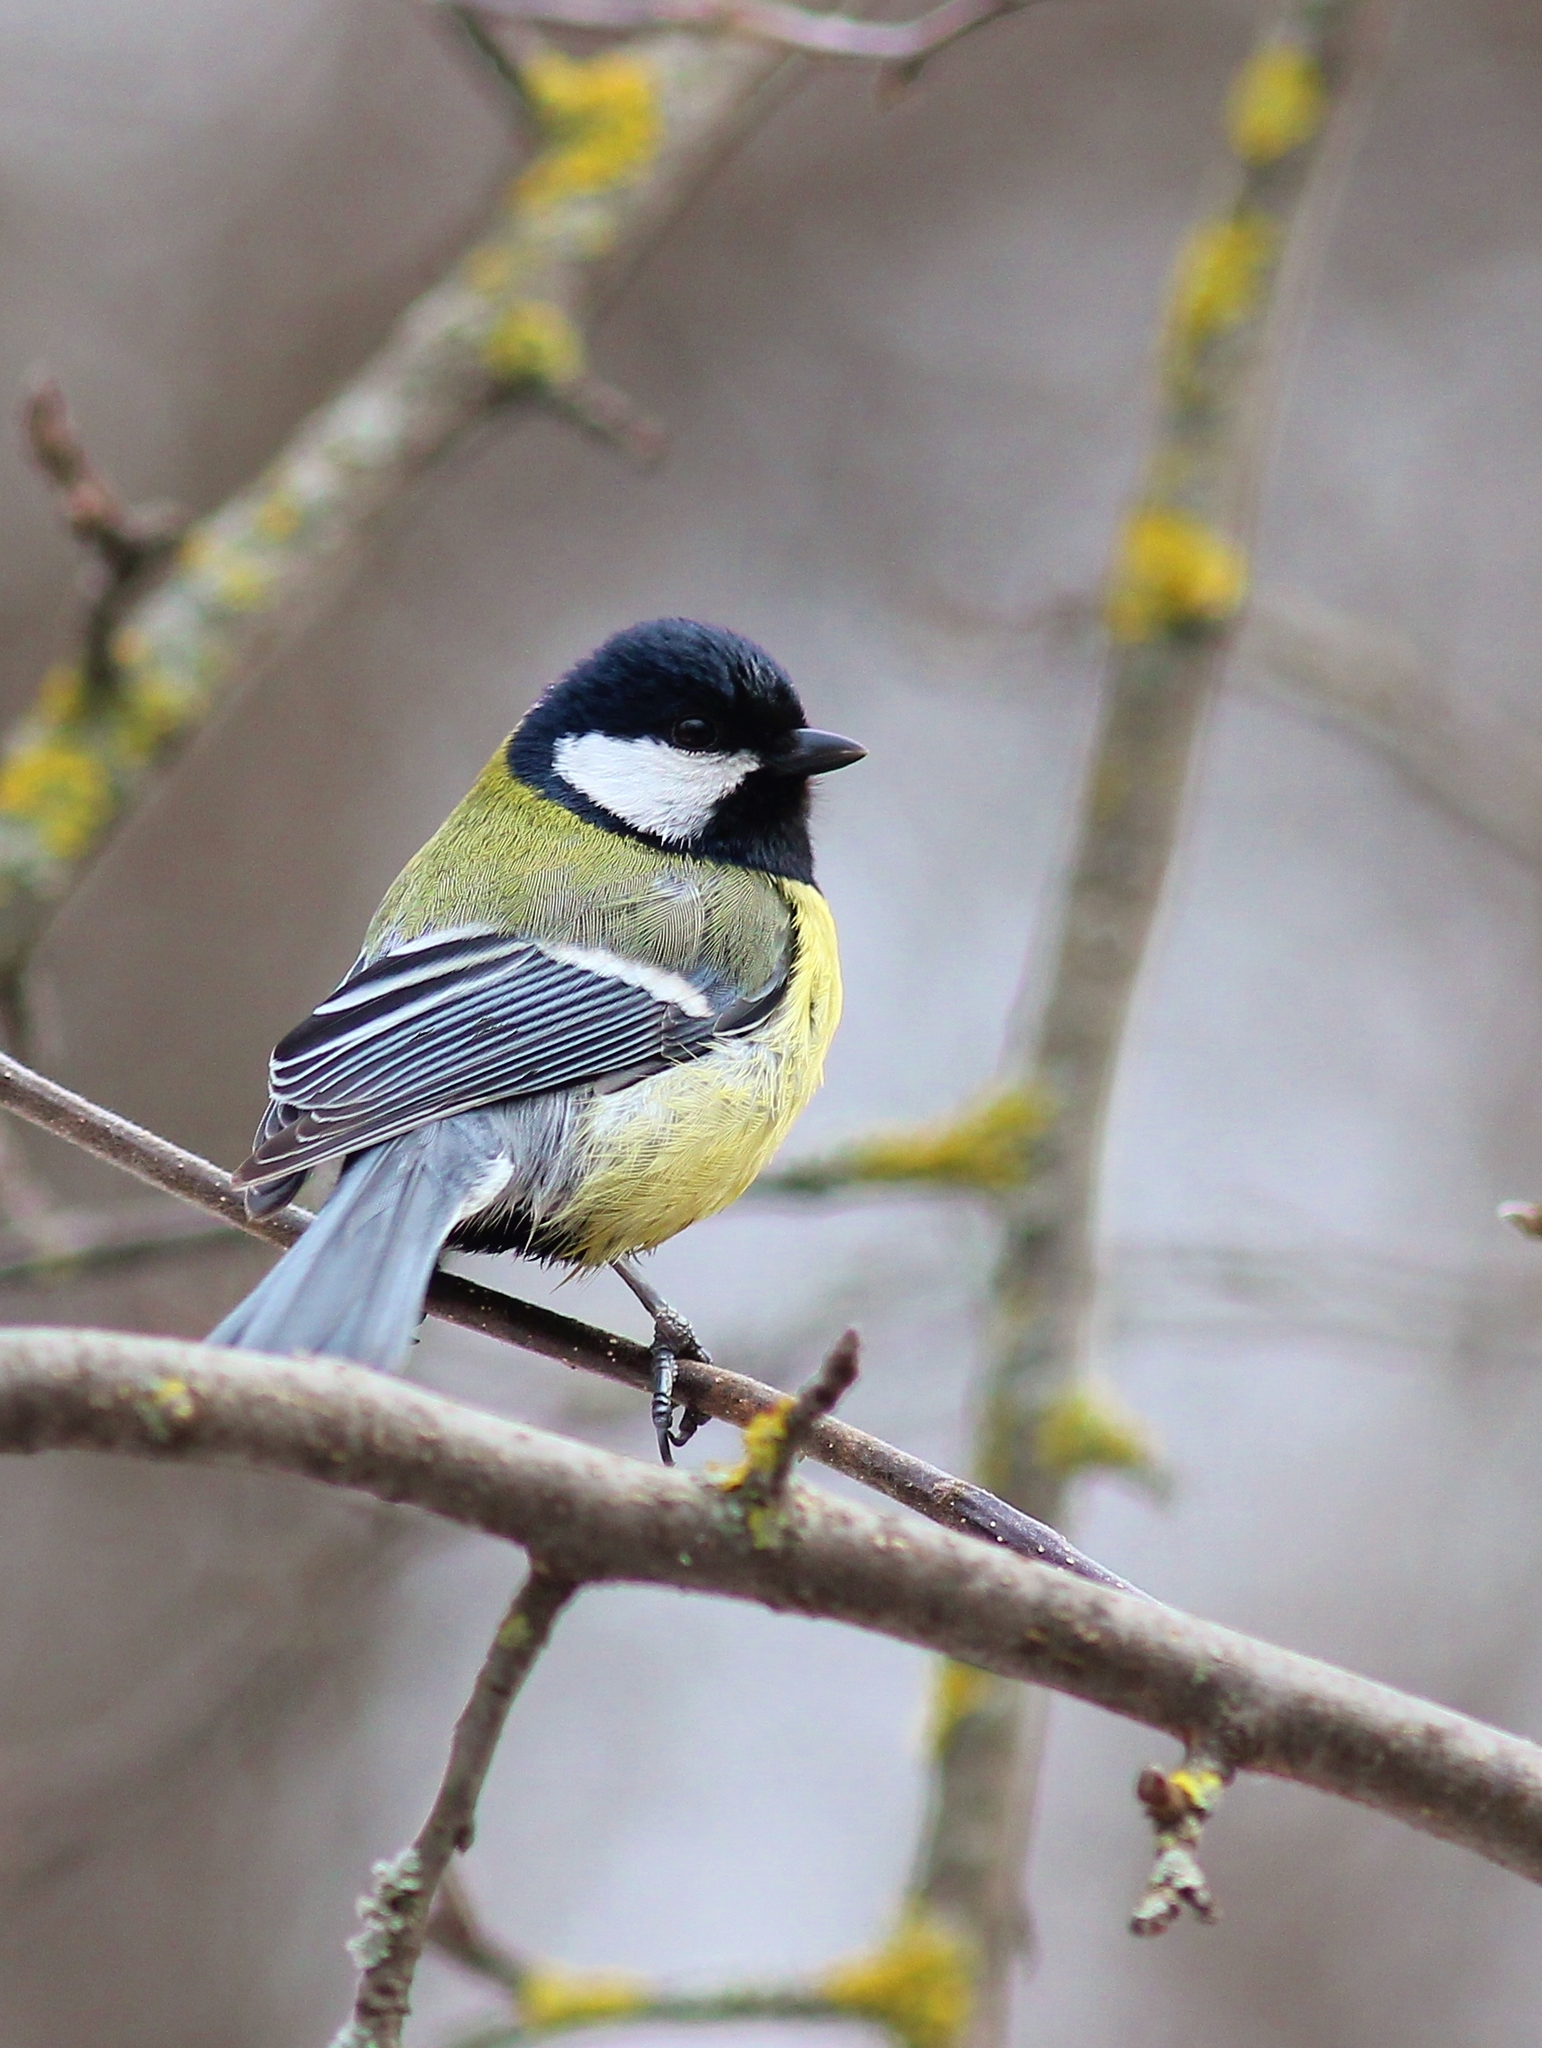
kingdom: Animalia
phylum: Chordata
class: Aves
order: Passeriformes
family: Paridae
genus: Parus
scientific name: Parus major
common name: Great tit
